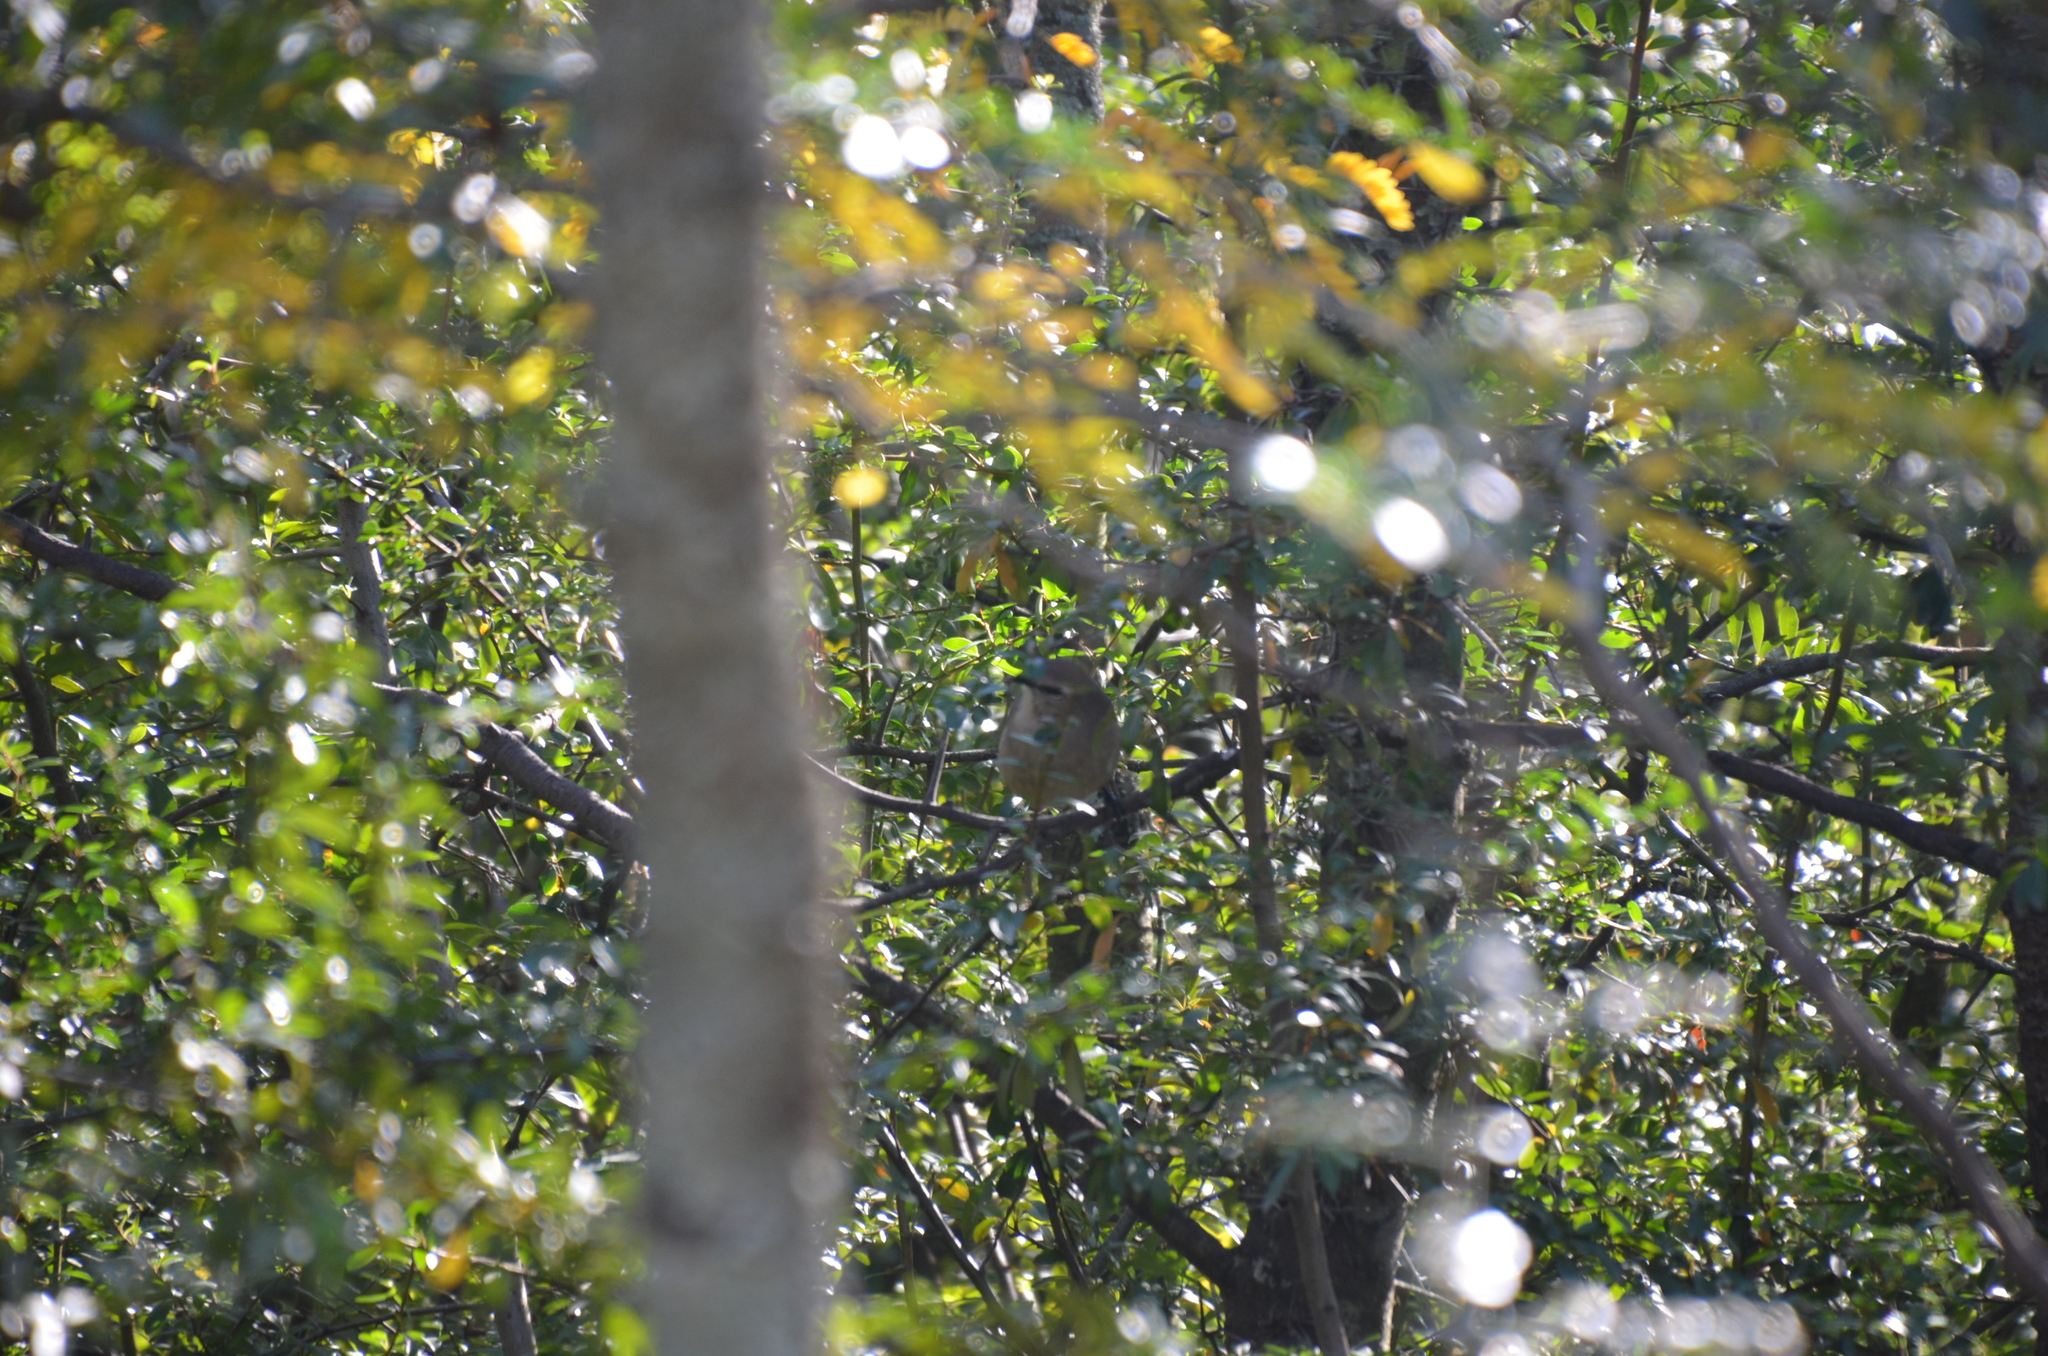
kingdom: Animalia
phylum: Chordata
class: Aves
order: Passeriformes
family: Mimidae
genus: Mimus
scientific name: Mimus patagonicus
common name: Patagonian mockingbird
